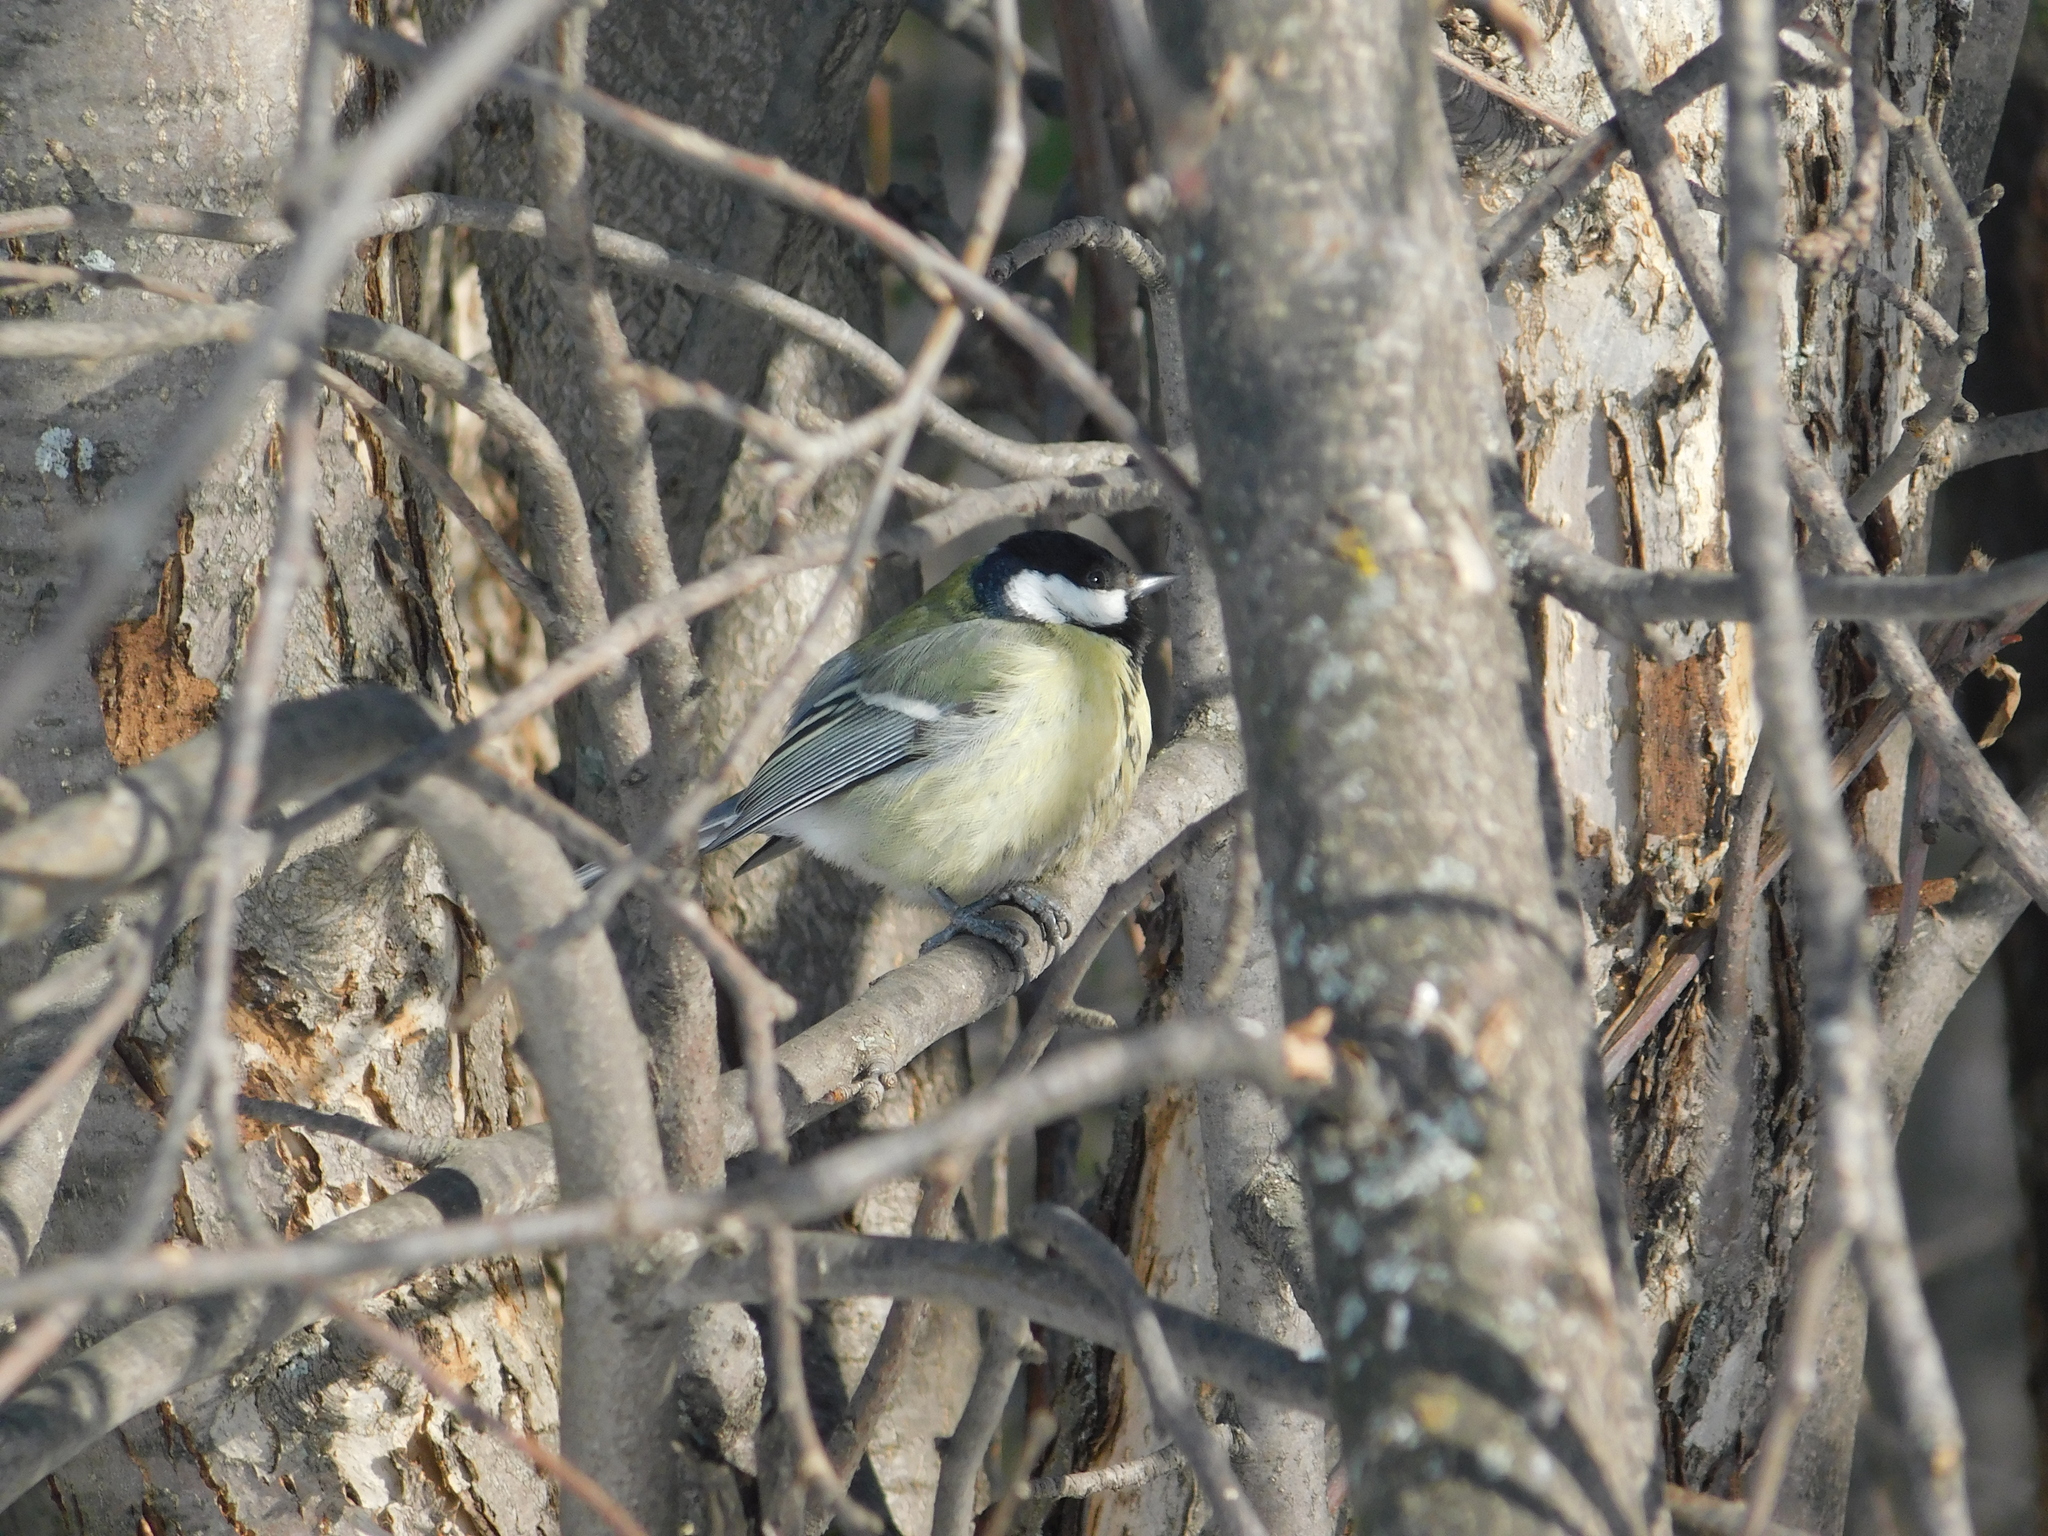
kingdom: Animalia
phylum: Chordata
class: Aves
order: Passeriformes
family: Paridae
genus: Parus
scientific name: Parus major
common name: Great tit
